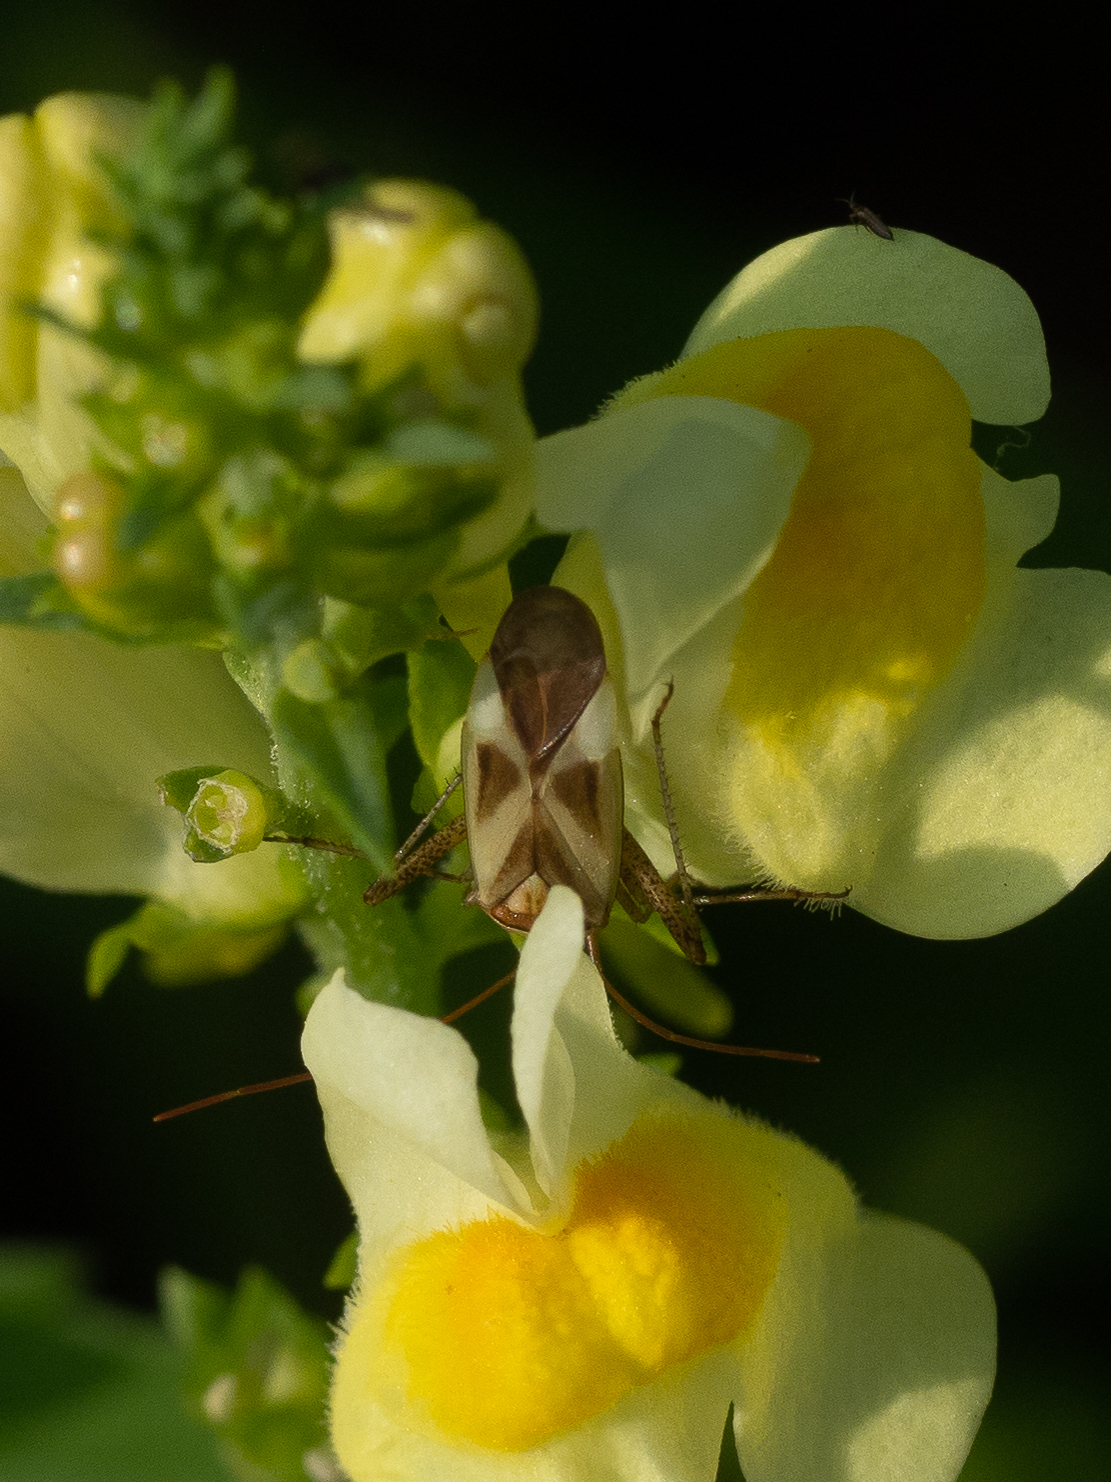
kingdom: Animalia
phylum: Arthropoda
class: Insecta
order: Hemiptera
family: Miridae
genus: Adelphocoris
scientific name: Adelphocoris lineolatus
